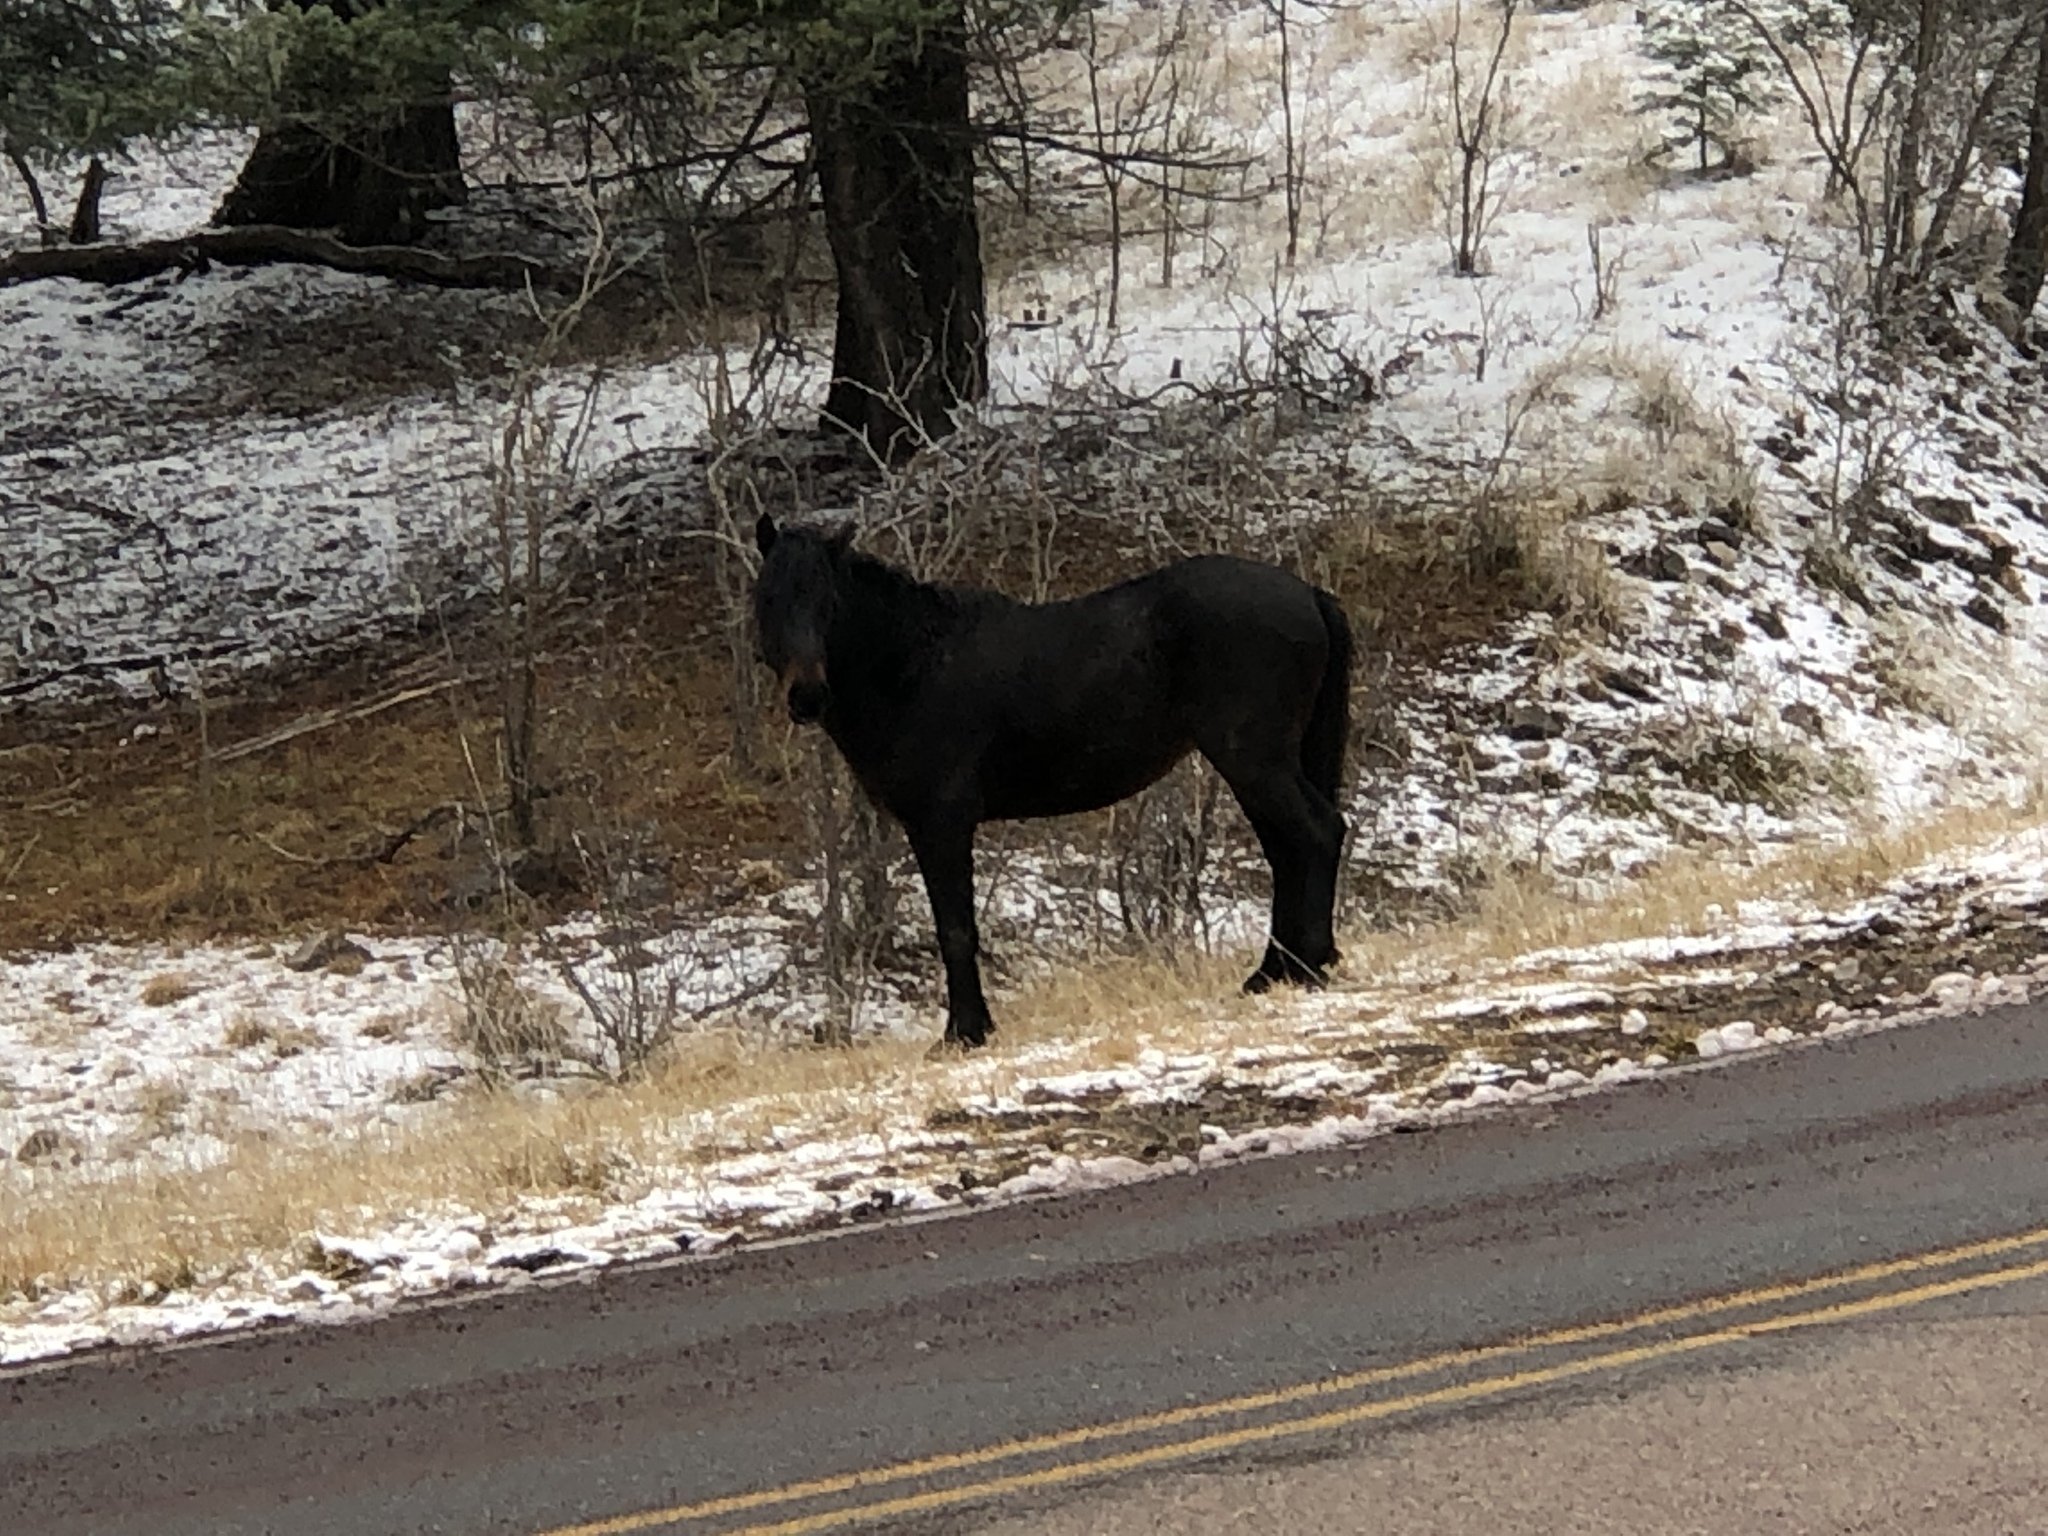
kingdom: Animalia
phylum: Chordata
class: Mammalia
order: Perissodactyla
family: Equidae
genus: Equus
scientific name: Equus caballus
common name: Horse
